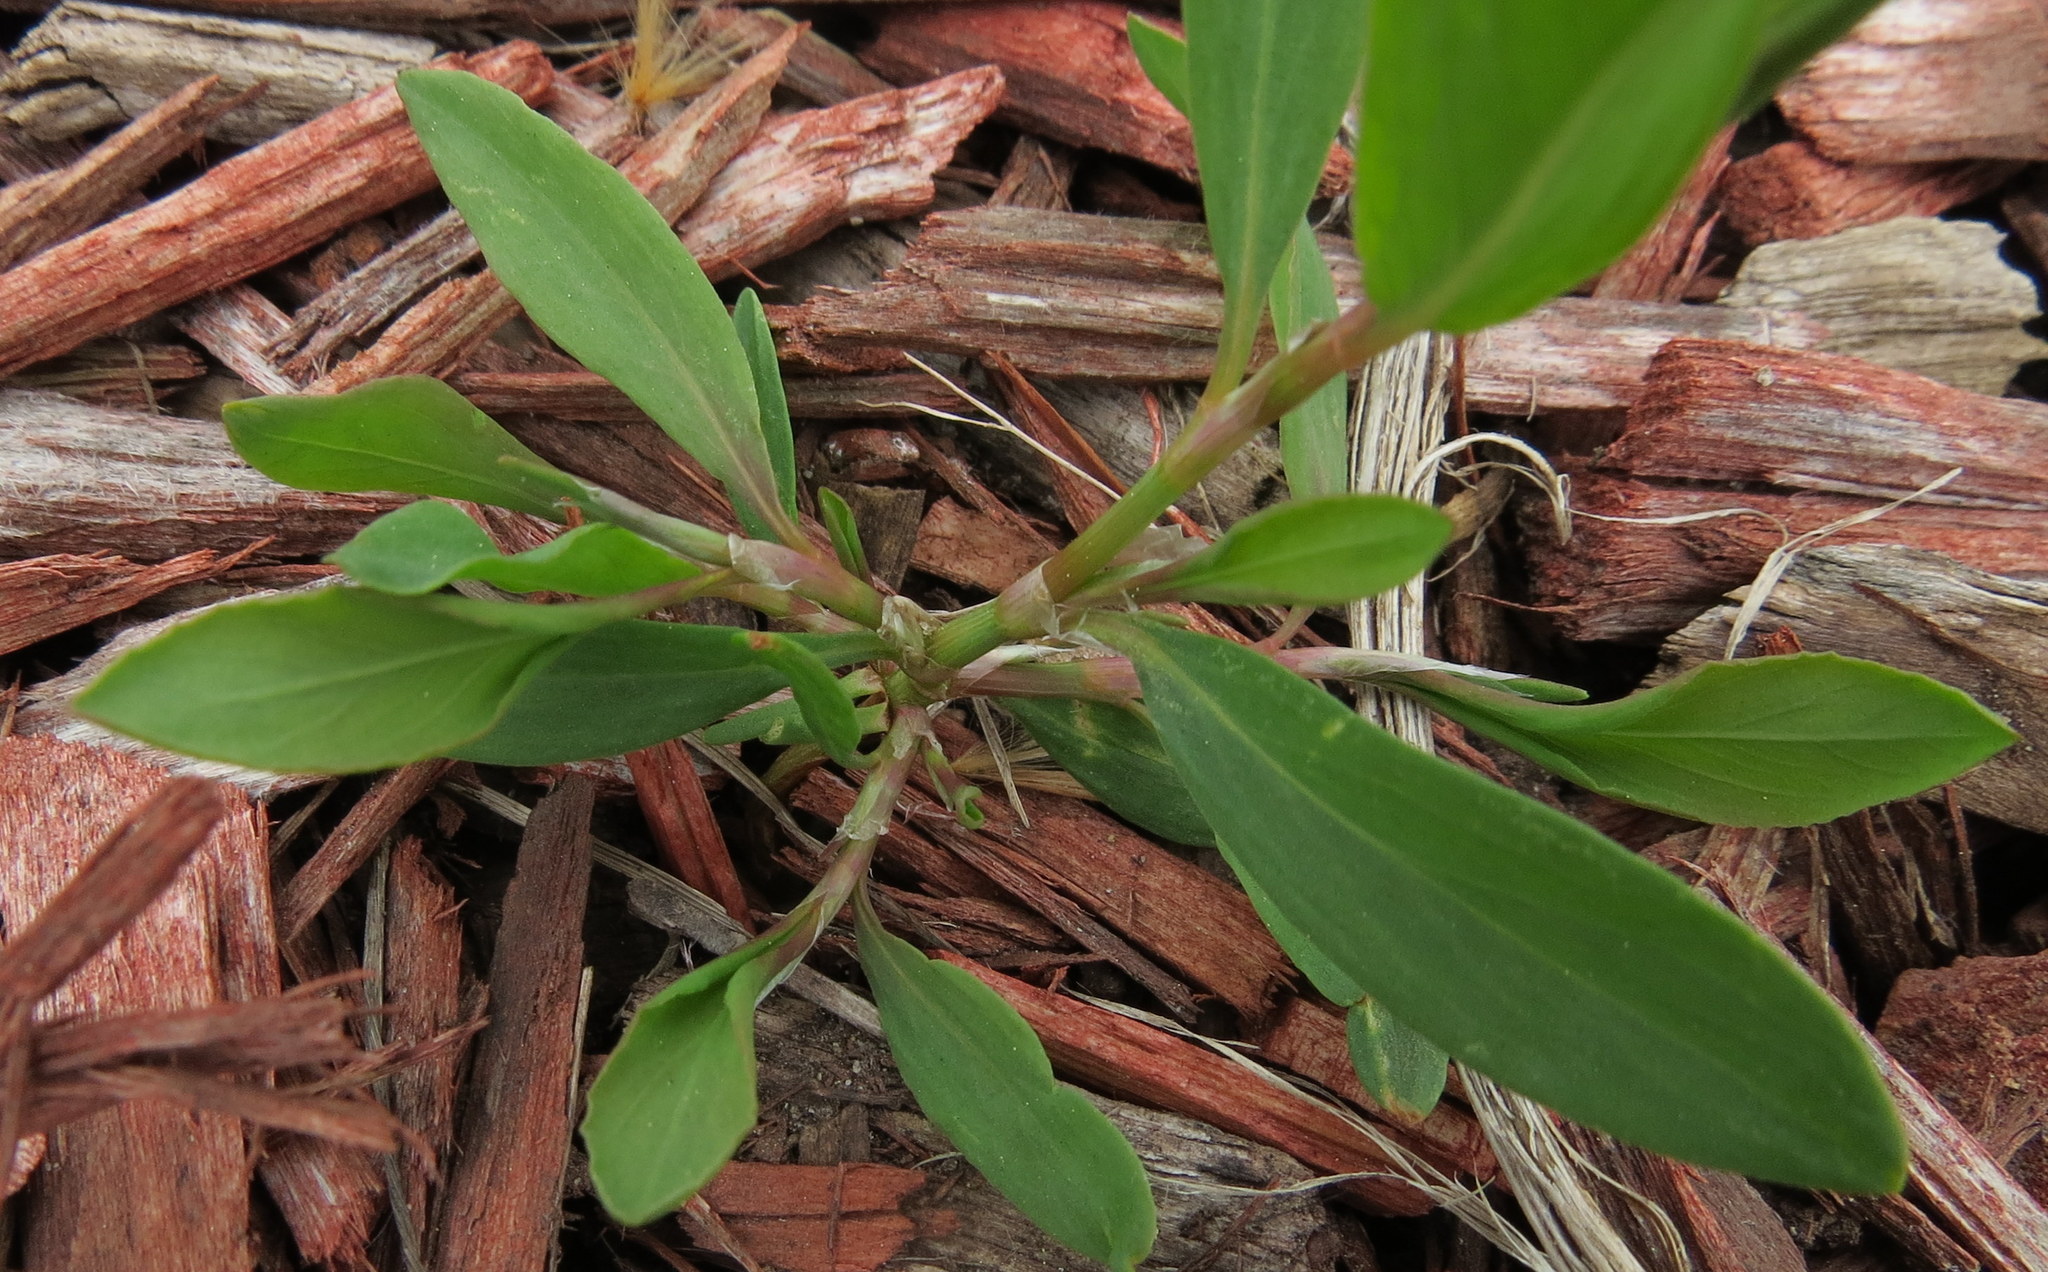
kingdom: Plantae
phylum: Tracheophyta
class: Magnoliopsida
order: Caryophyllales
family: Polygonaceae
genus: Polygonum
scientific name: Polygonum aviculare
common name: Prostrate knotweed
